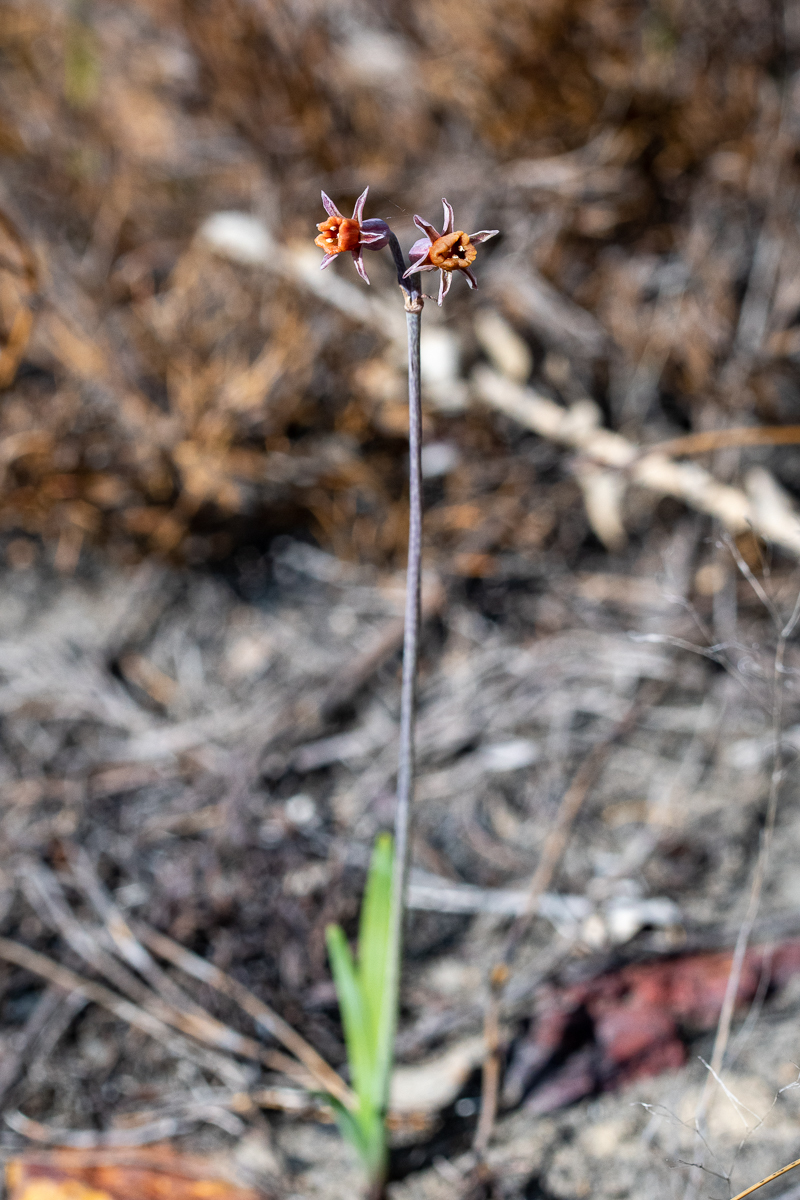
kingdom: Plantae
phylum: Tracheophyta
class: Liliopsida
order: Asparagales
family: Amaryllidaceae
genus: Tulbaghia
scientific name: Tulbaghia alliacea
